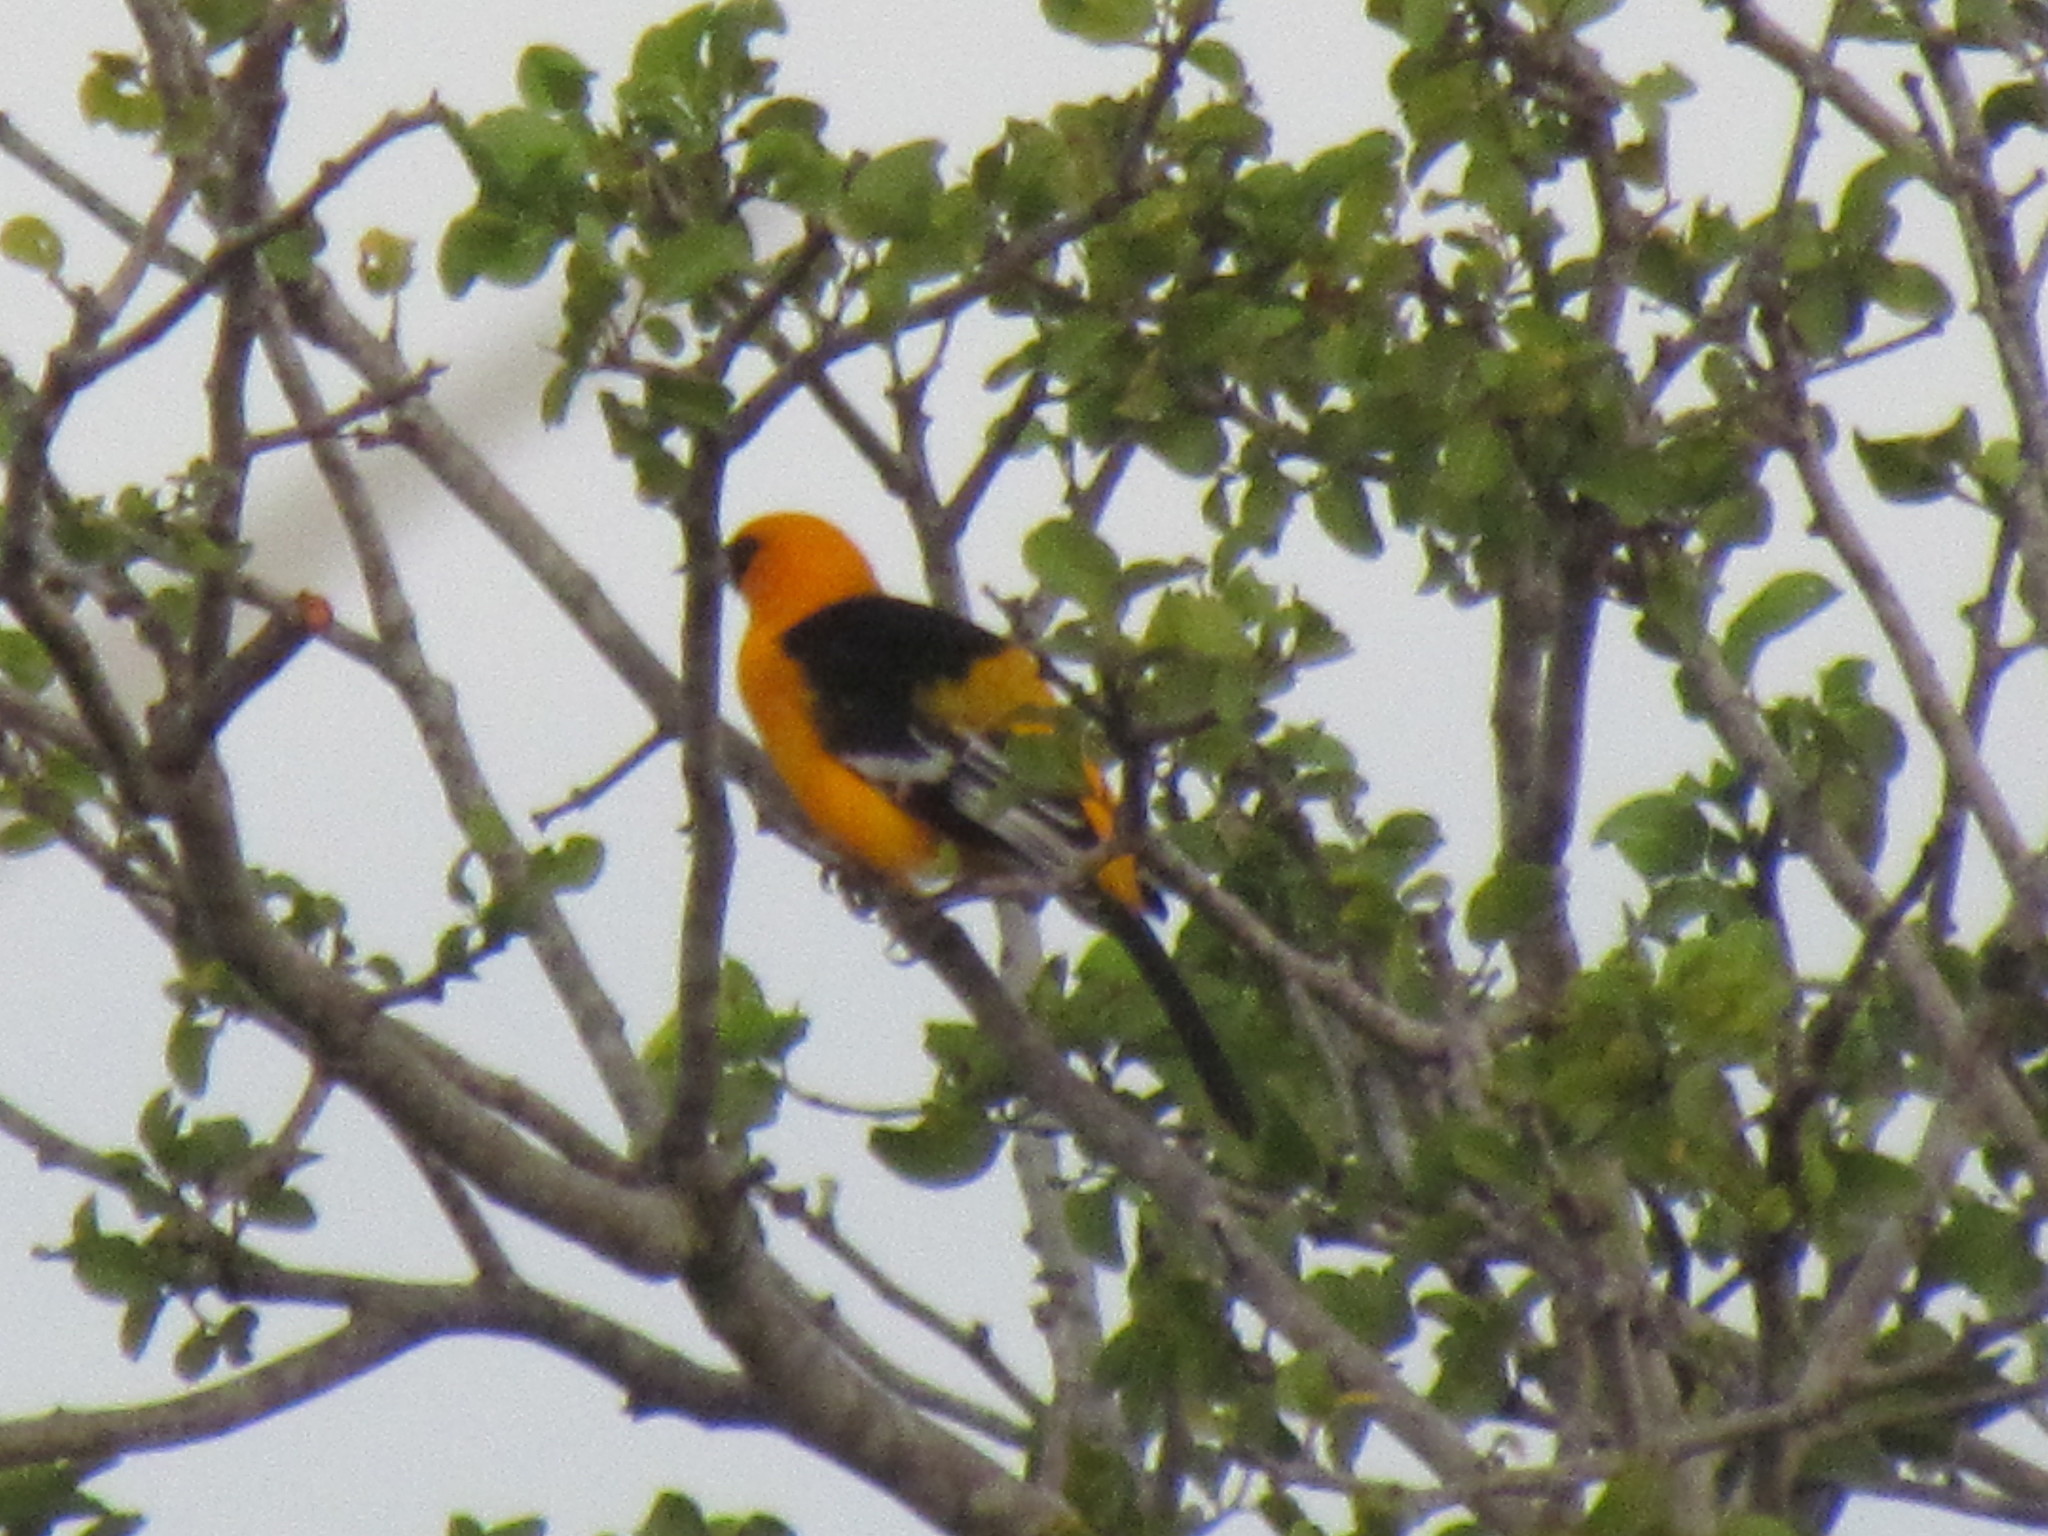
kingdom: Animalia
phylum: Chordata
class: Aves
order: Passeriformes
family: Icteridae
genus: Icterus
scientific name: Icterus gularis
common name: Altamira oriole
